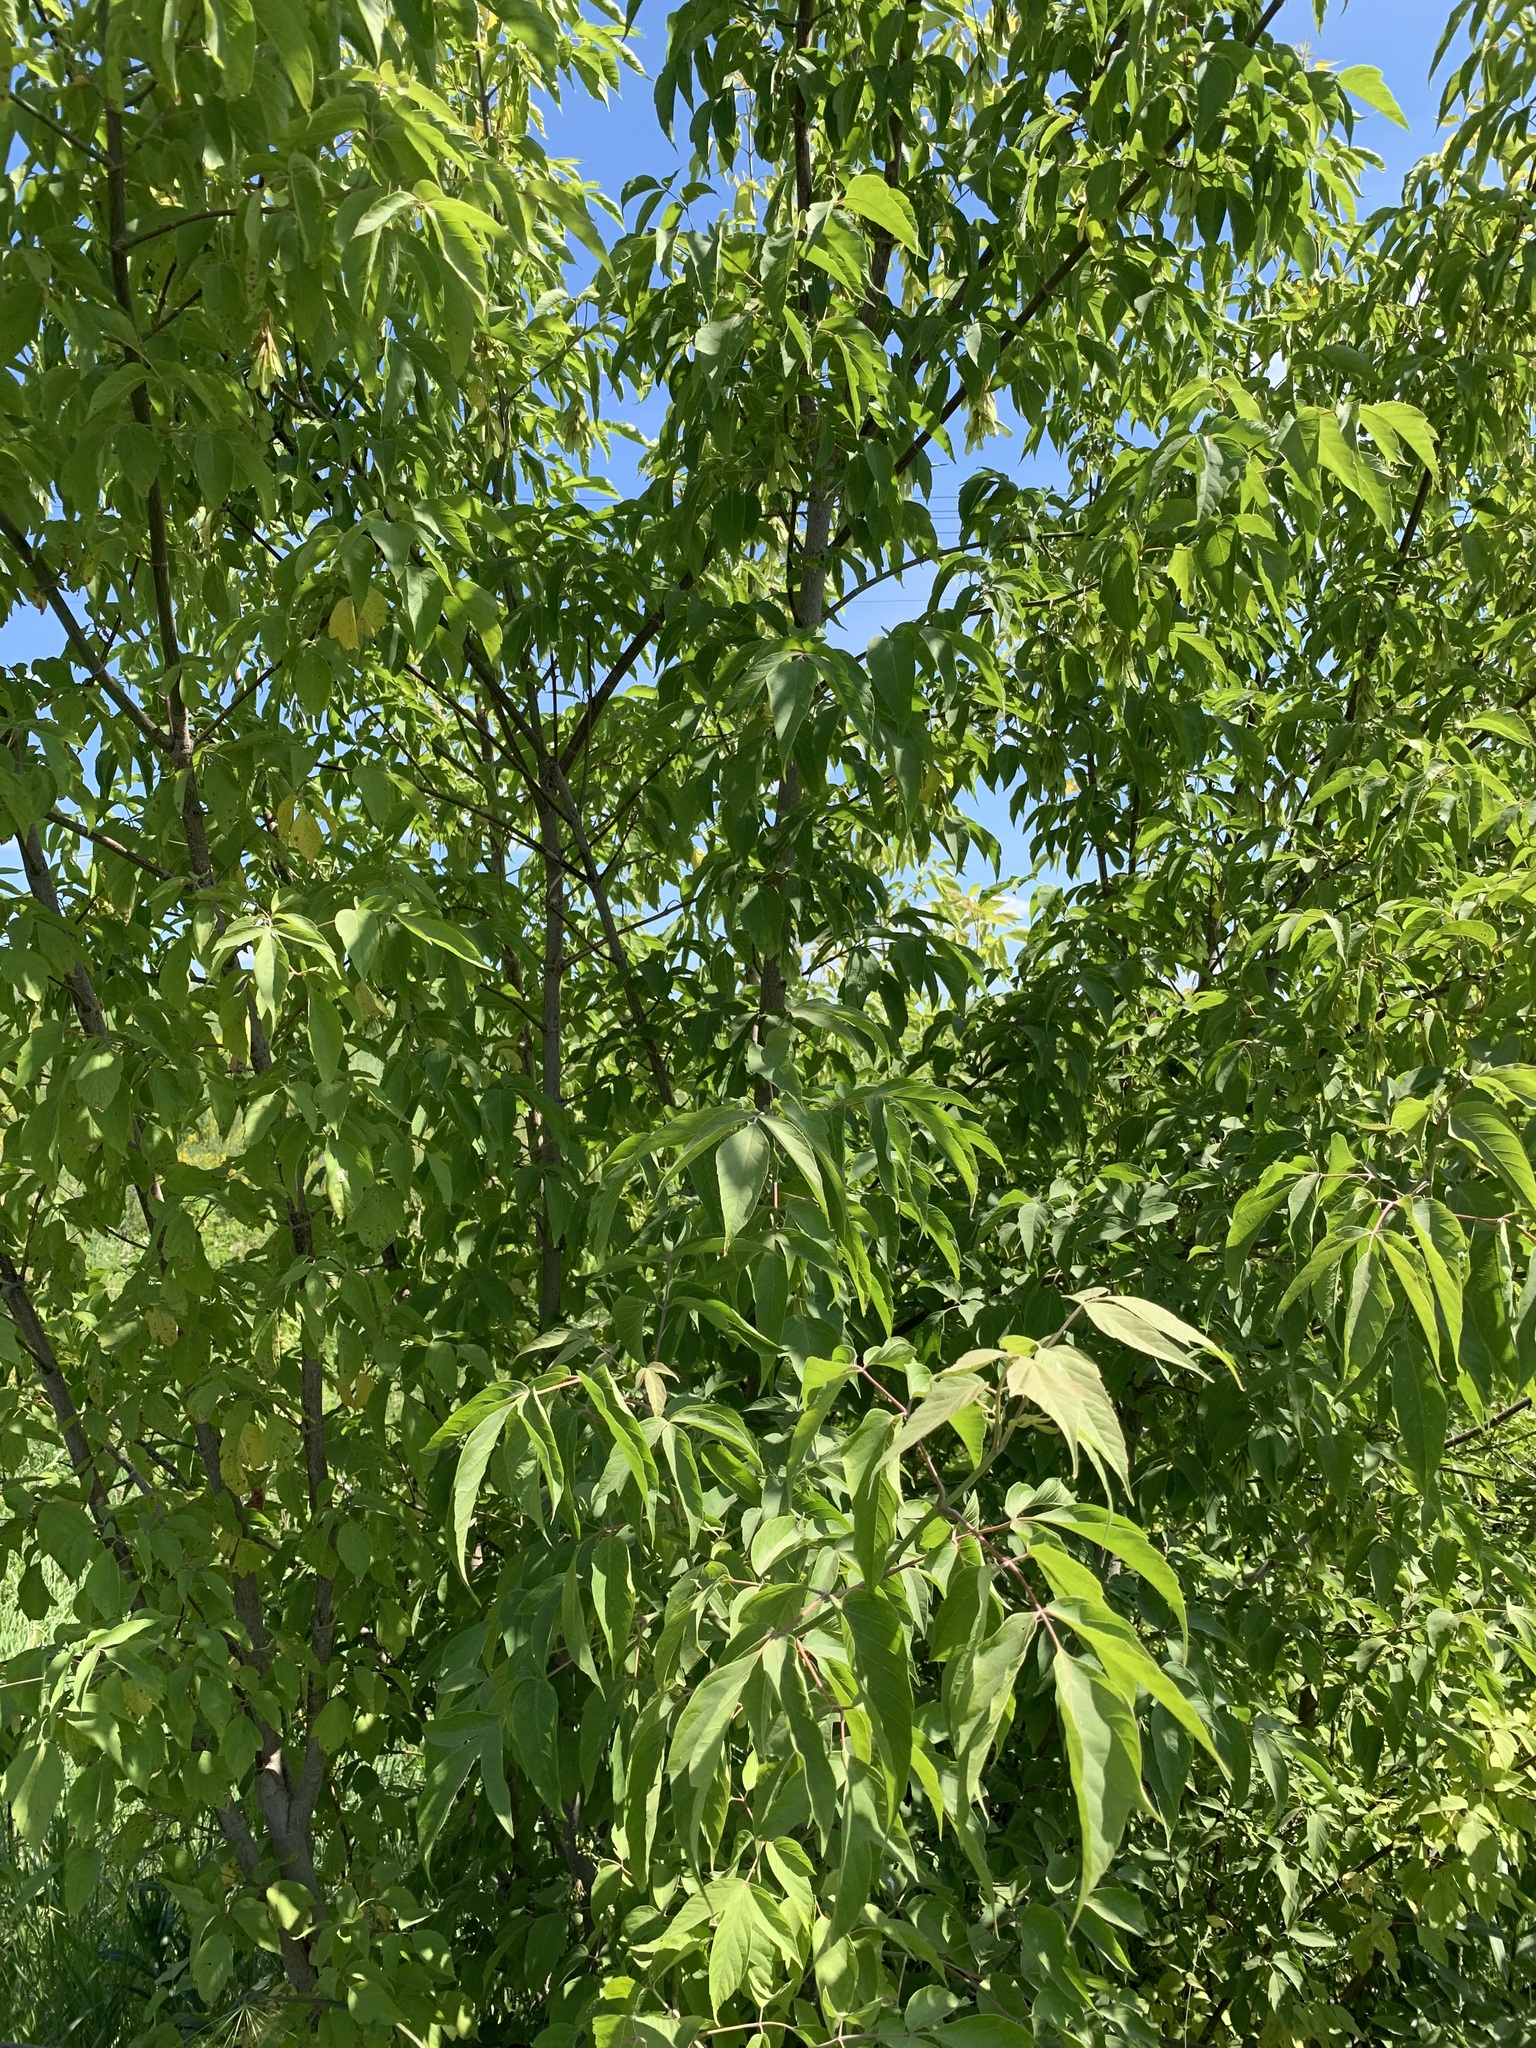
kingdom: Plantae
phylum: Tracheophyta
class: Magnoliopsida
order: Sapindales
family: Sapindaceae
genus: Acer
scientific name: Acer negundo
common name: Ashleaf maple
